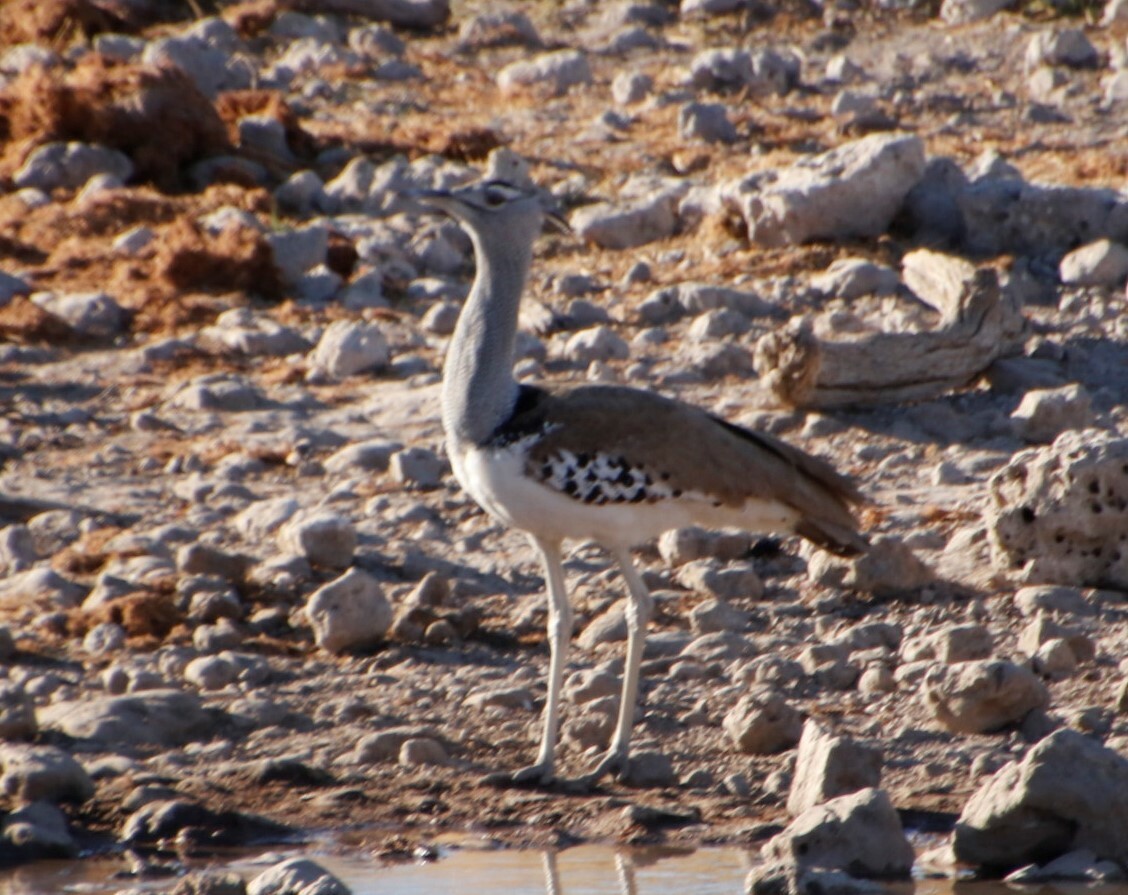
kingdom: Animalia
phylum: Chordata
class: Aves
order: Otidiformes
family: Otididae
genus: Ardeotis
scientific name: Ardeotis kori
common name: Kori bustard
